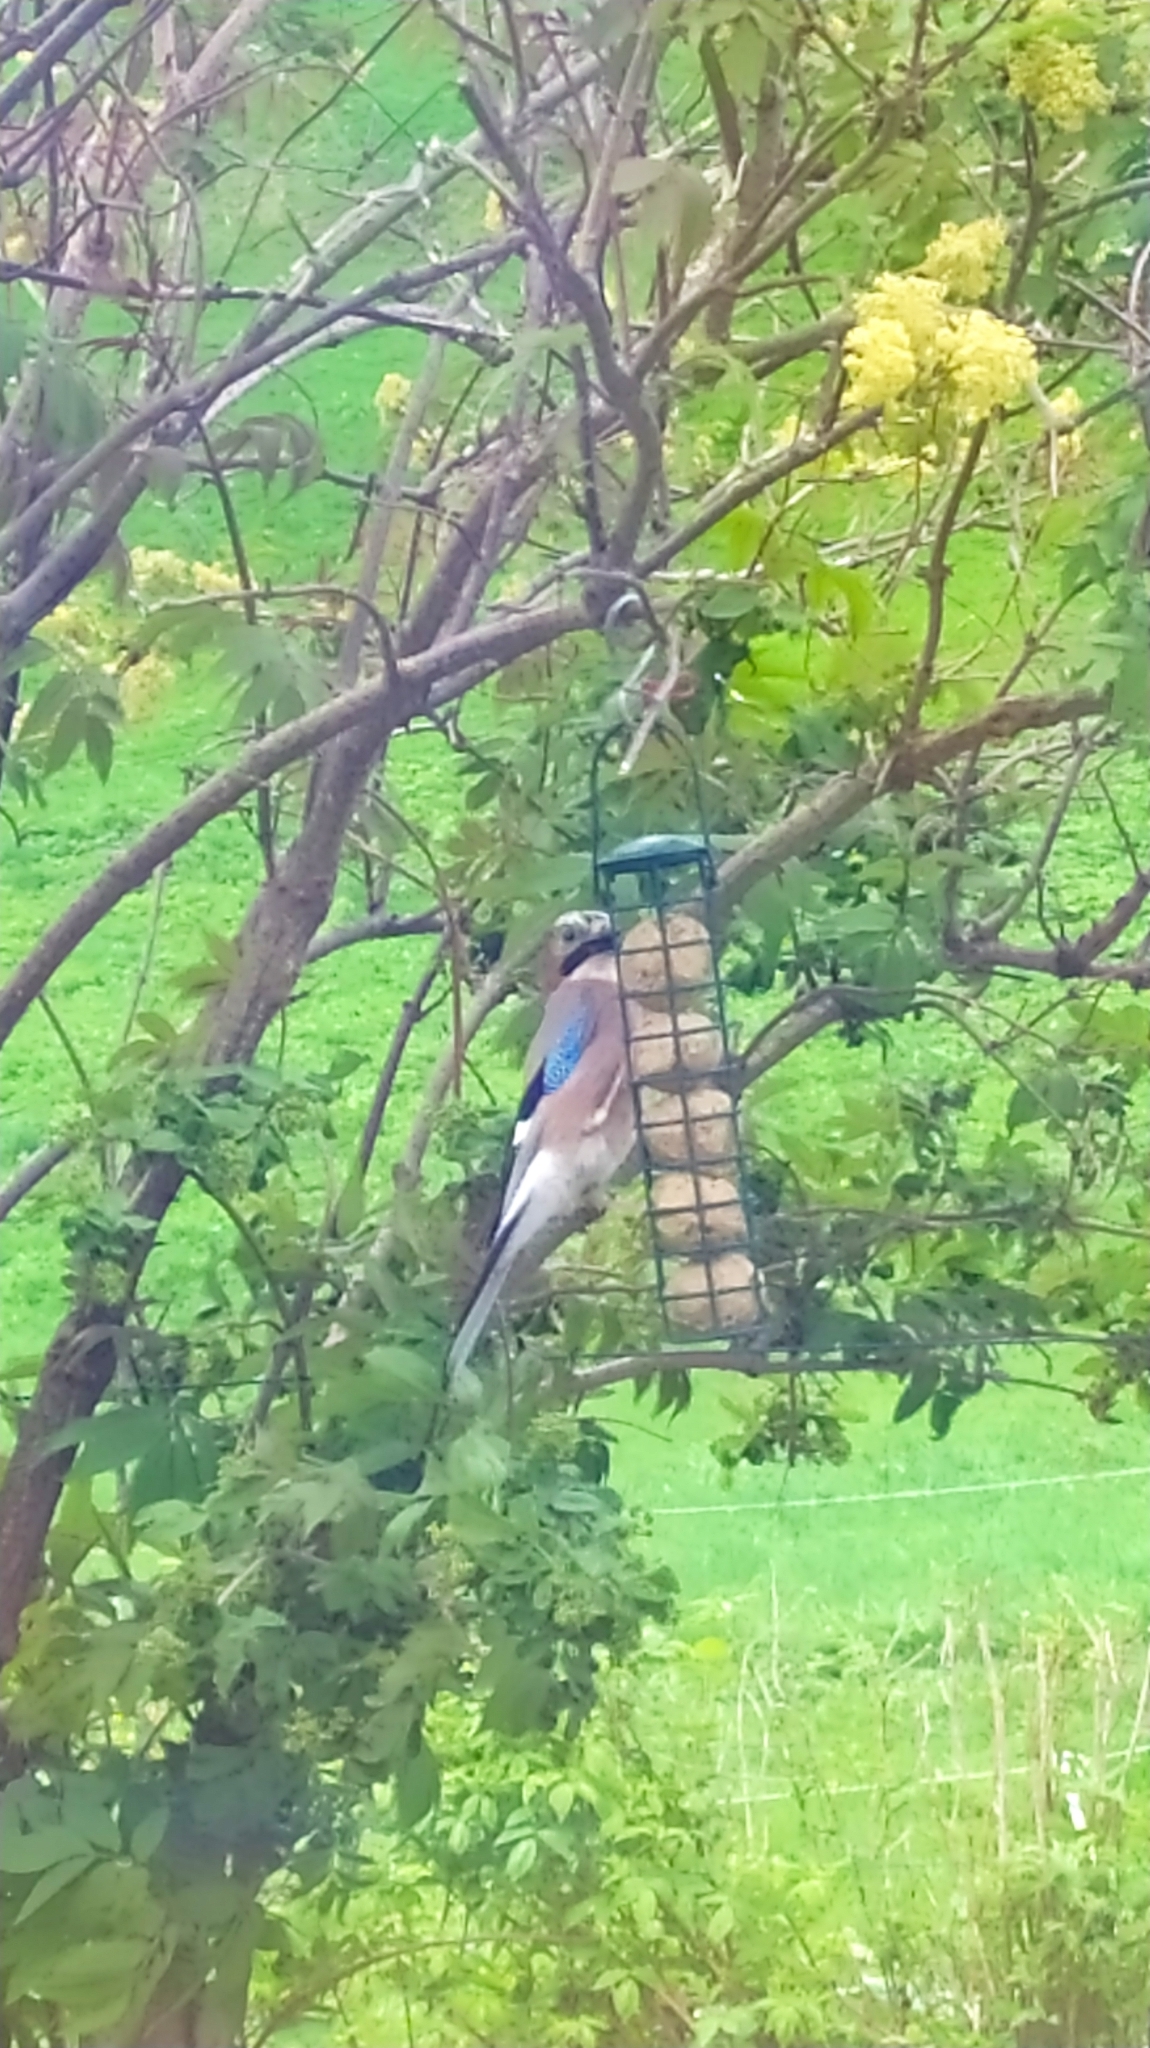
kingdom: Animalia
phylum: Chordata
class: Aves
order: Passeriformes
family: Corvidae
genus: Garrulus
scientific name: Garrulus glandarius
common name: Eurasian jay
